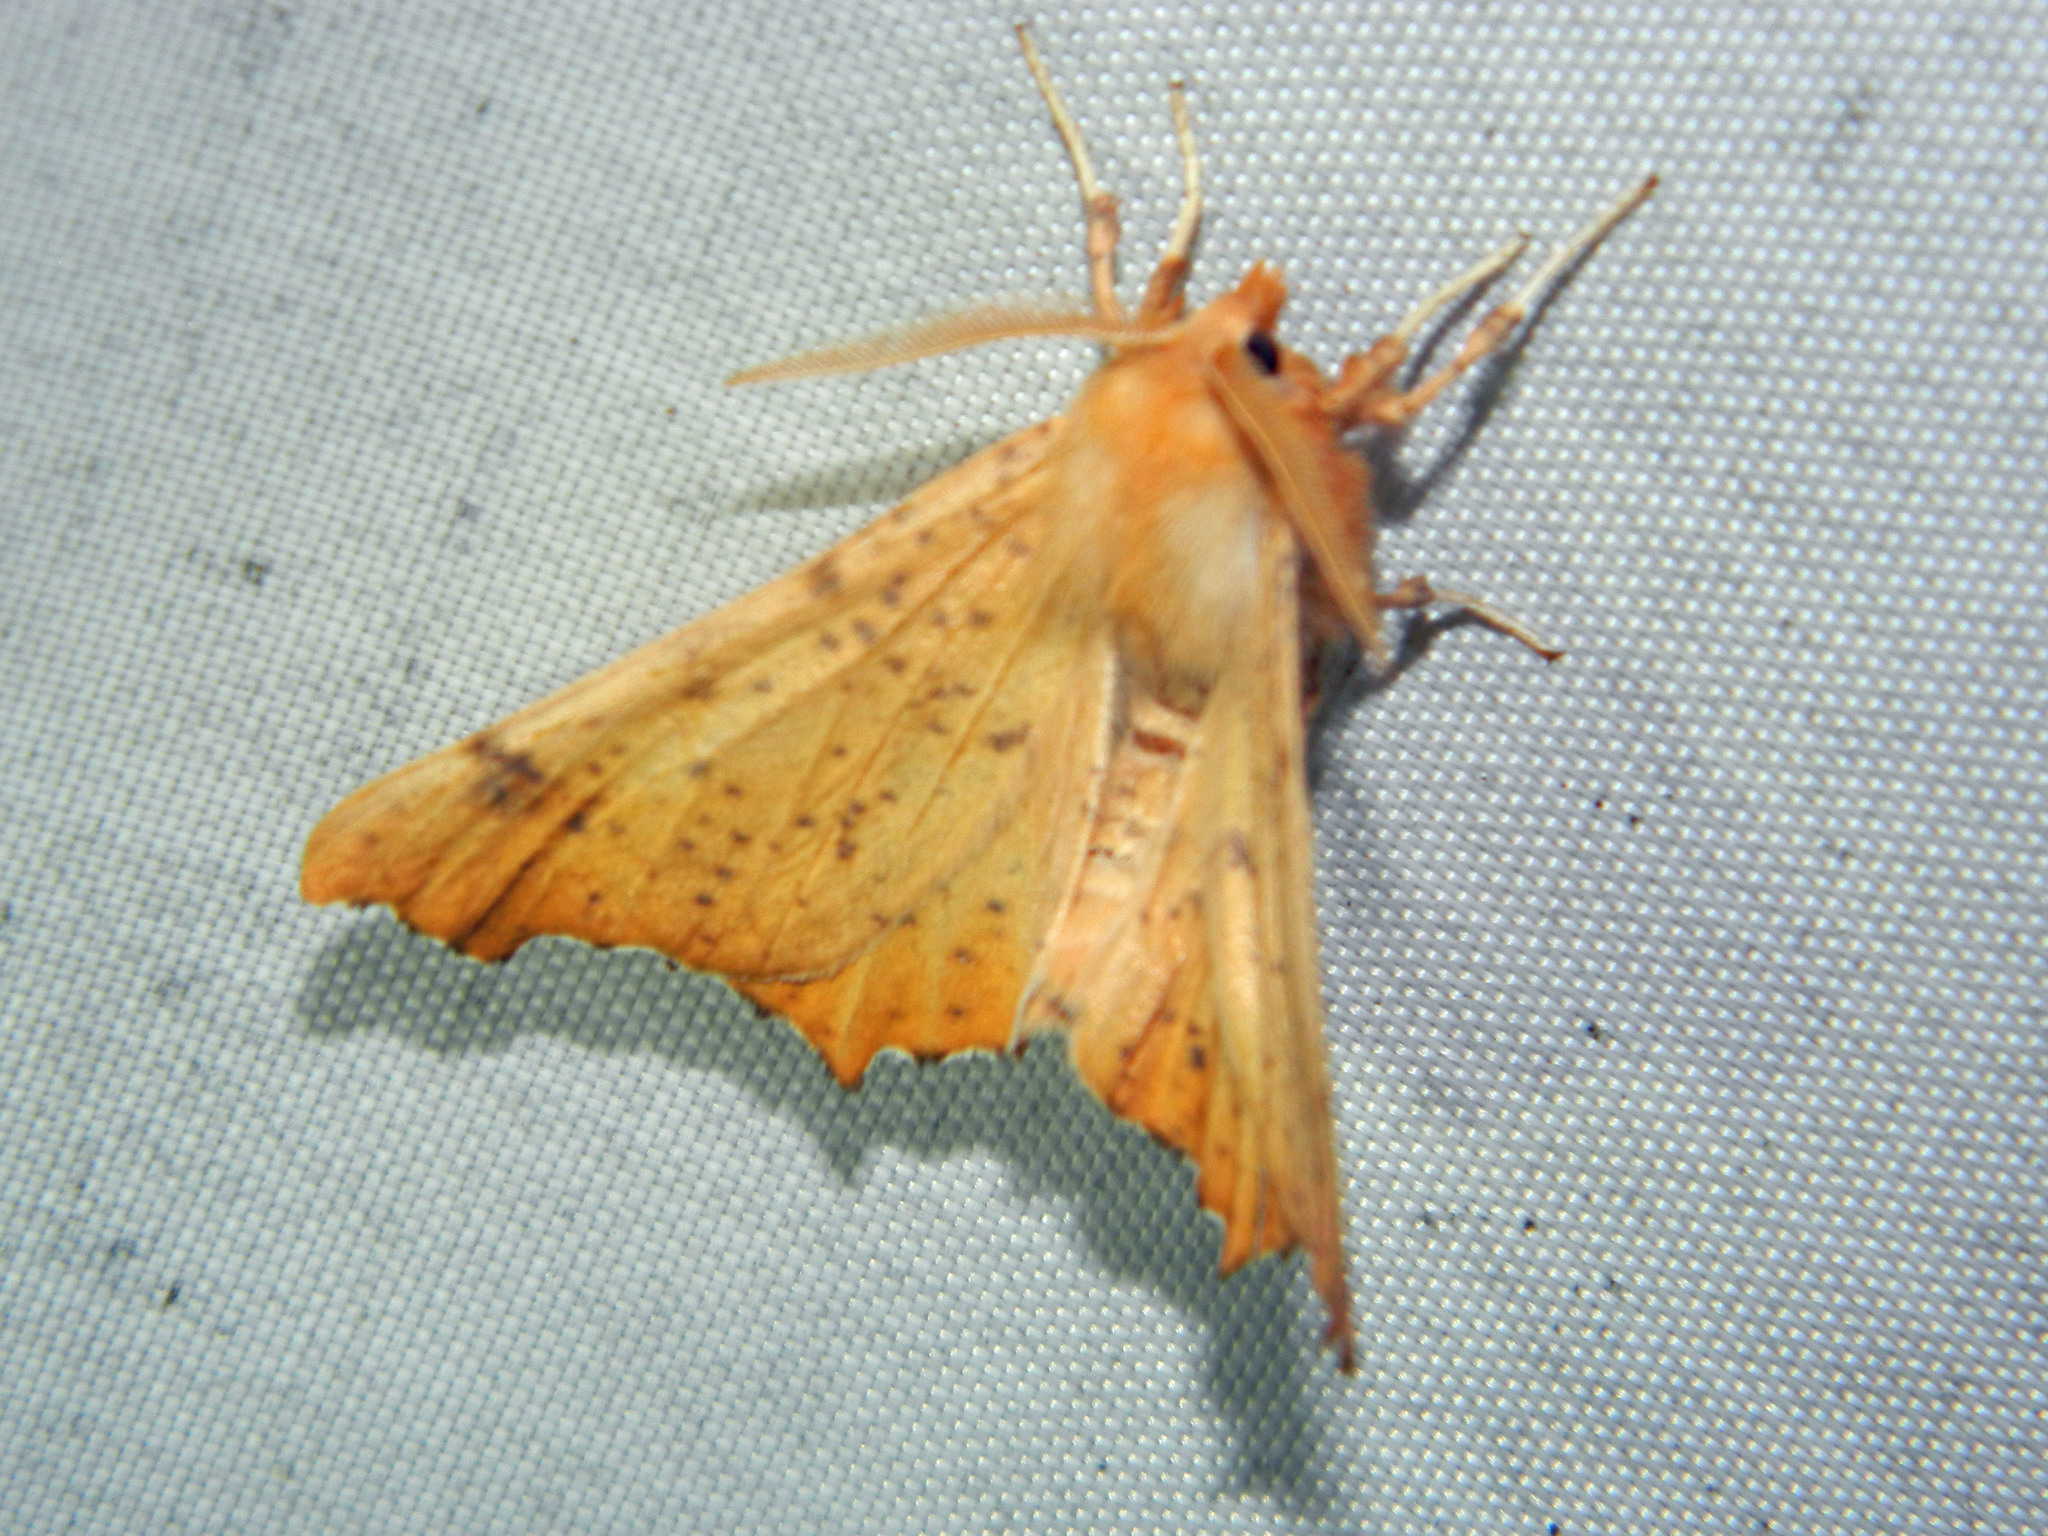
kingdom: Animalia
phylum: Arthropoda
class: Insecta
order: Lepidoptera
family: Geometridae
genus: Ennomos
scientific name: Ennomos magnaria
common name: Maple spanworm
